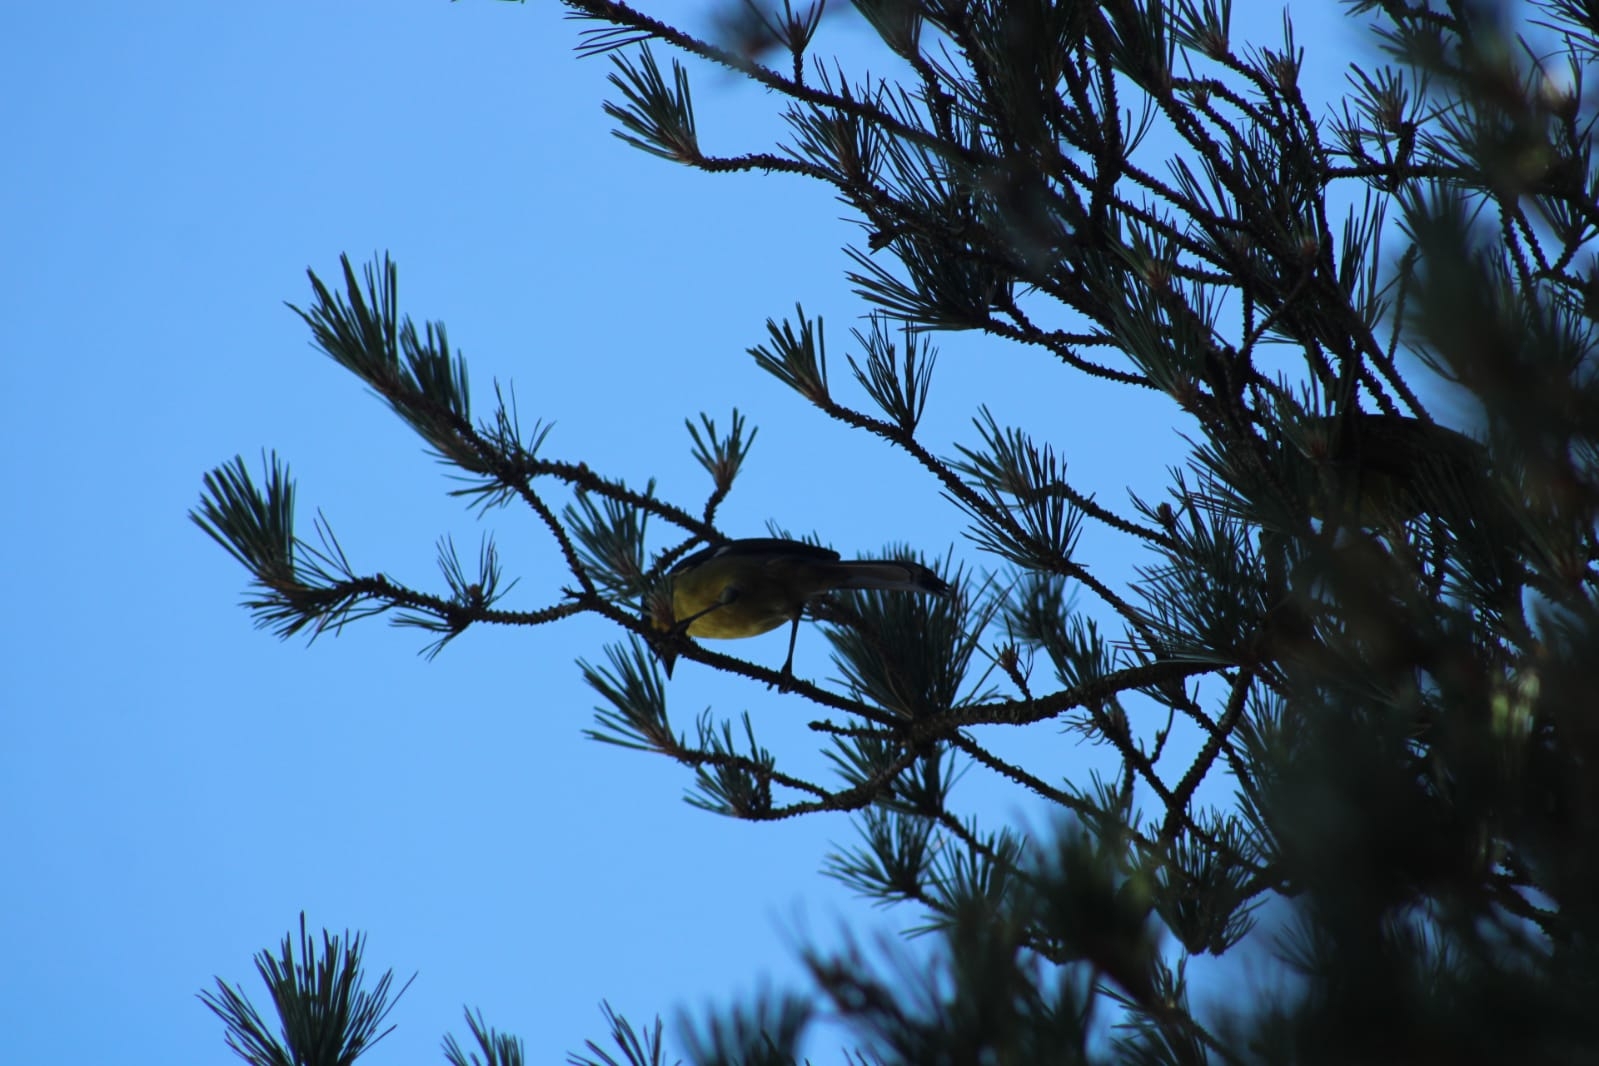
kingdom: Animalia
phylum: Chordata
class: Aves
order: Passeriformes
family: Passerellidae
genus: Atlapetes
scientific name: Atlapetes latinuchus
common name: Yellow-breasted brushfinch
